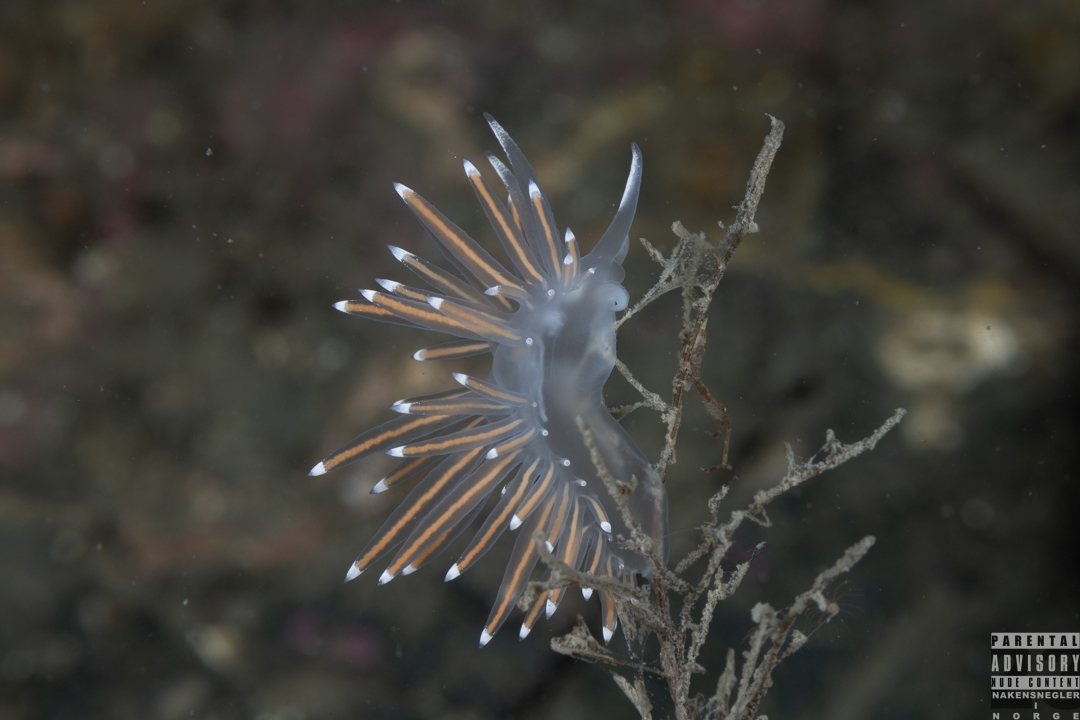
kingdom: Animalia
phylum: Mollusca
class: Gastropoda
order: Nudibranchia
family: Coryphellidae
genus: Coryphella
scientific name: Coryphella browni
